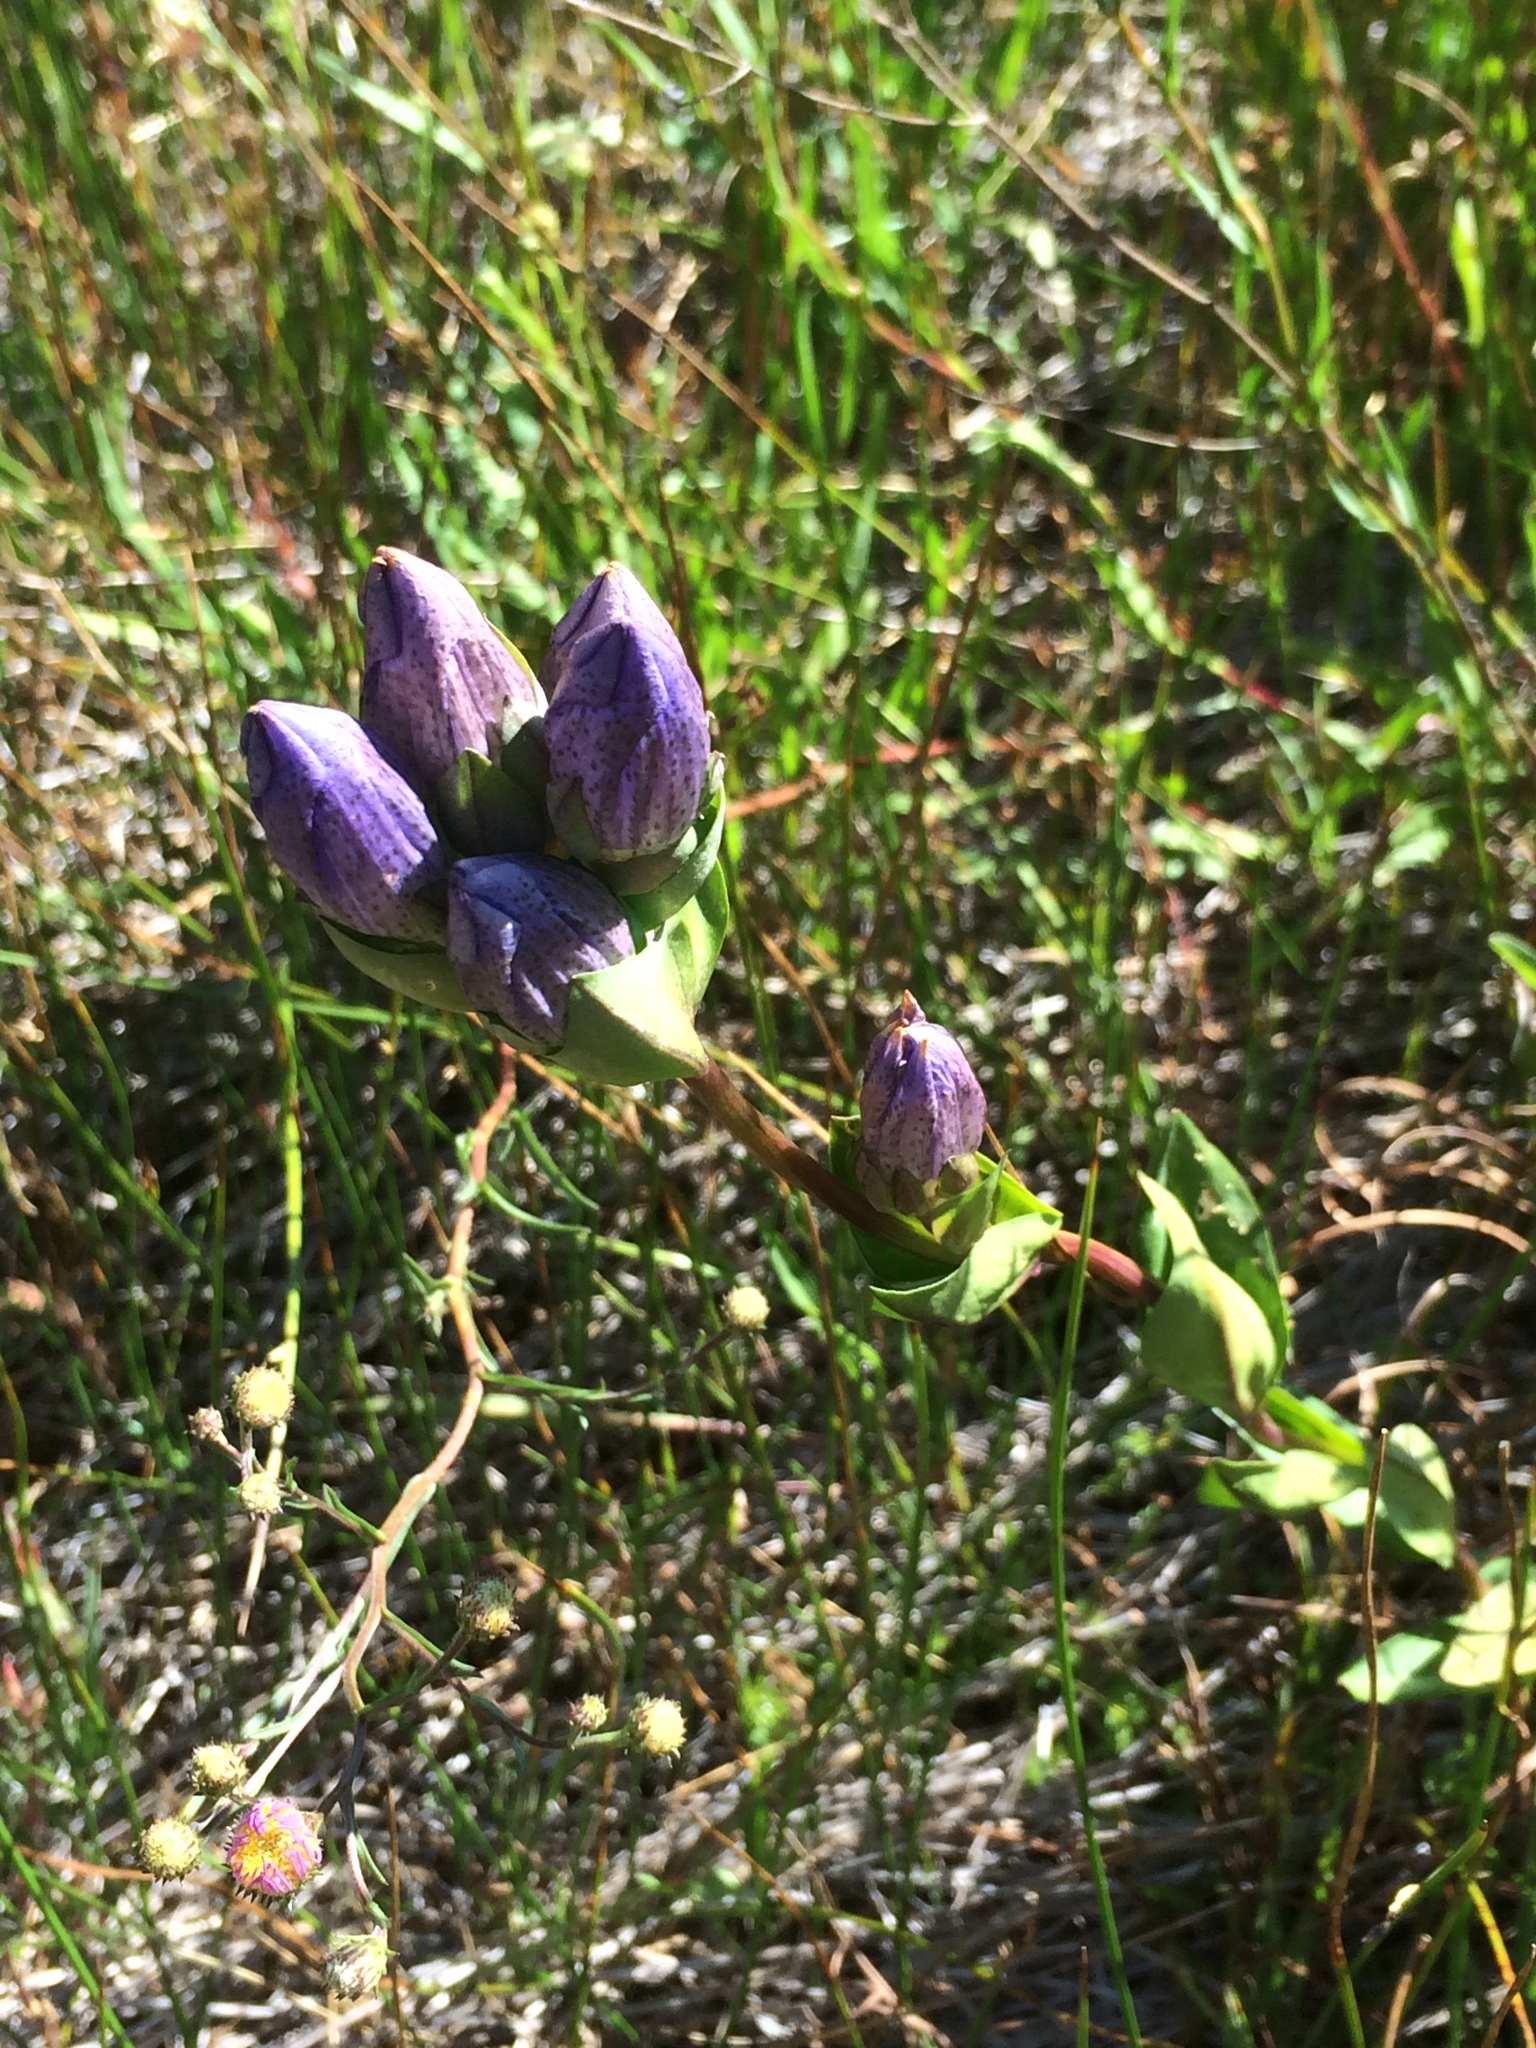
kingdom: Plantae
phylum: Tracheophyta
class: Magnoliopsida
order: Gentianales
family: Gentianaceae
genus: Gentiana
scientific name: Gentiana sceptrum
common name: Pacific gentian
